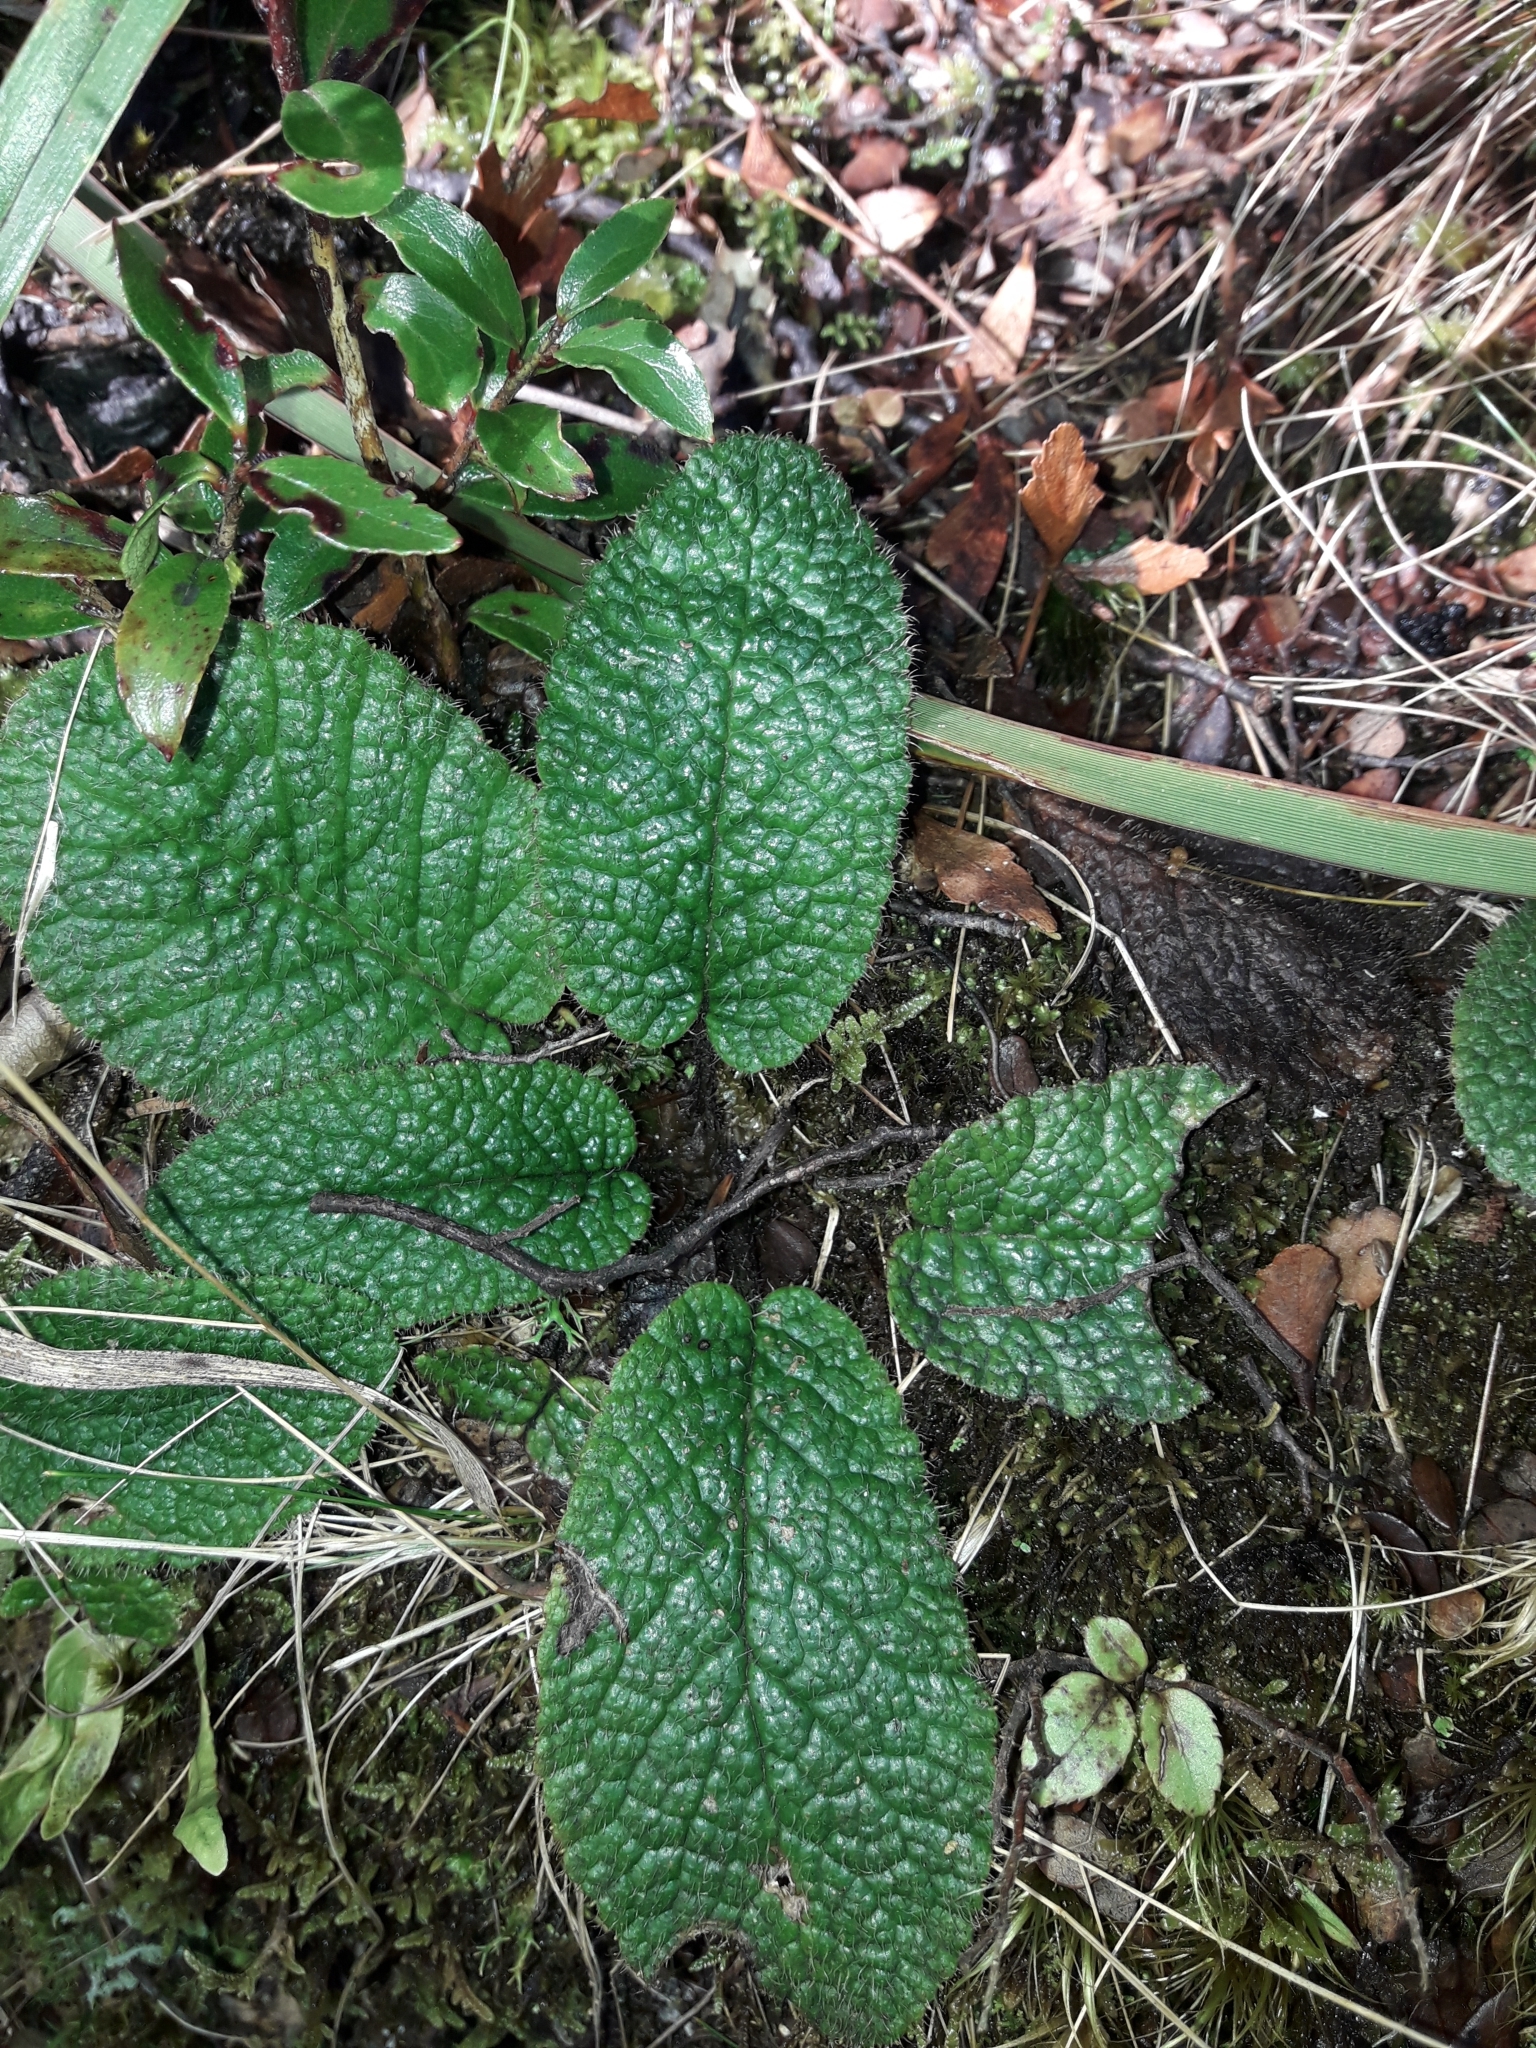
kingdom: Plantae
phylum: Tracheophyta
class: Magnoliopsida
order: Asterales
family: Asteraceae
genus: Brachyglottis
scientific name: Brachyglottis lagopus
